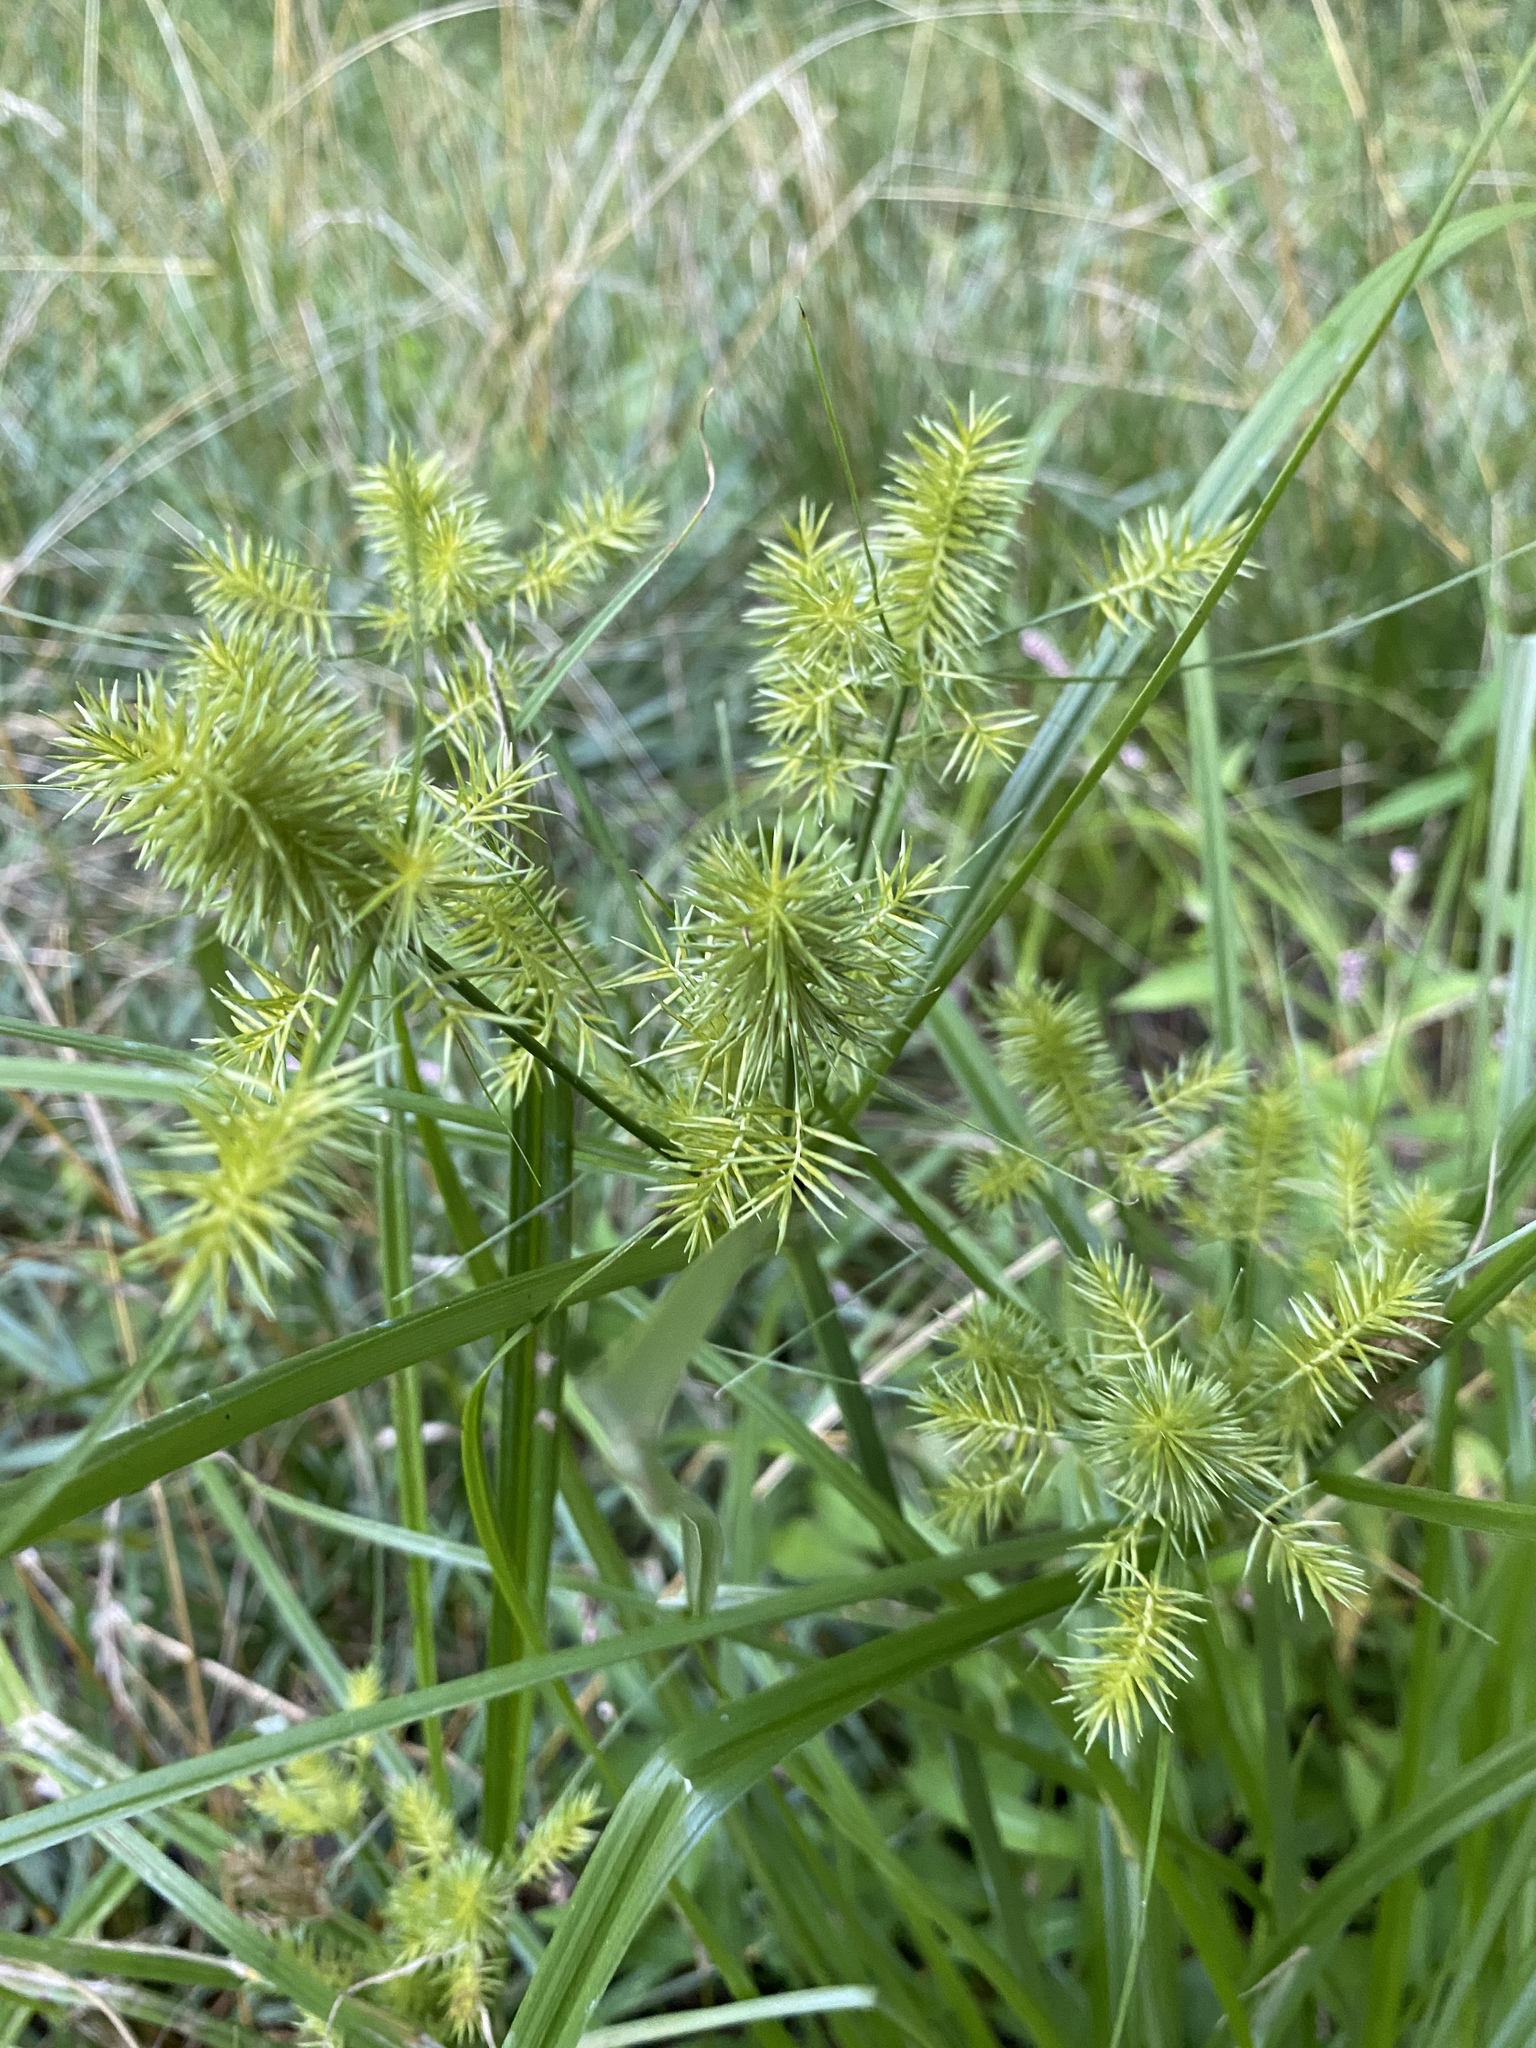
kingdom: Plantae
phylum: Tracheophyta
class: Liliopsida
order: Poales
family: Cyperaceae
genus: Cyperus
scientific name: Cyperus odoratus
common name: Fragrant flatsedge
